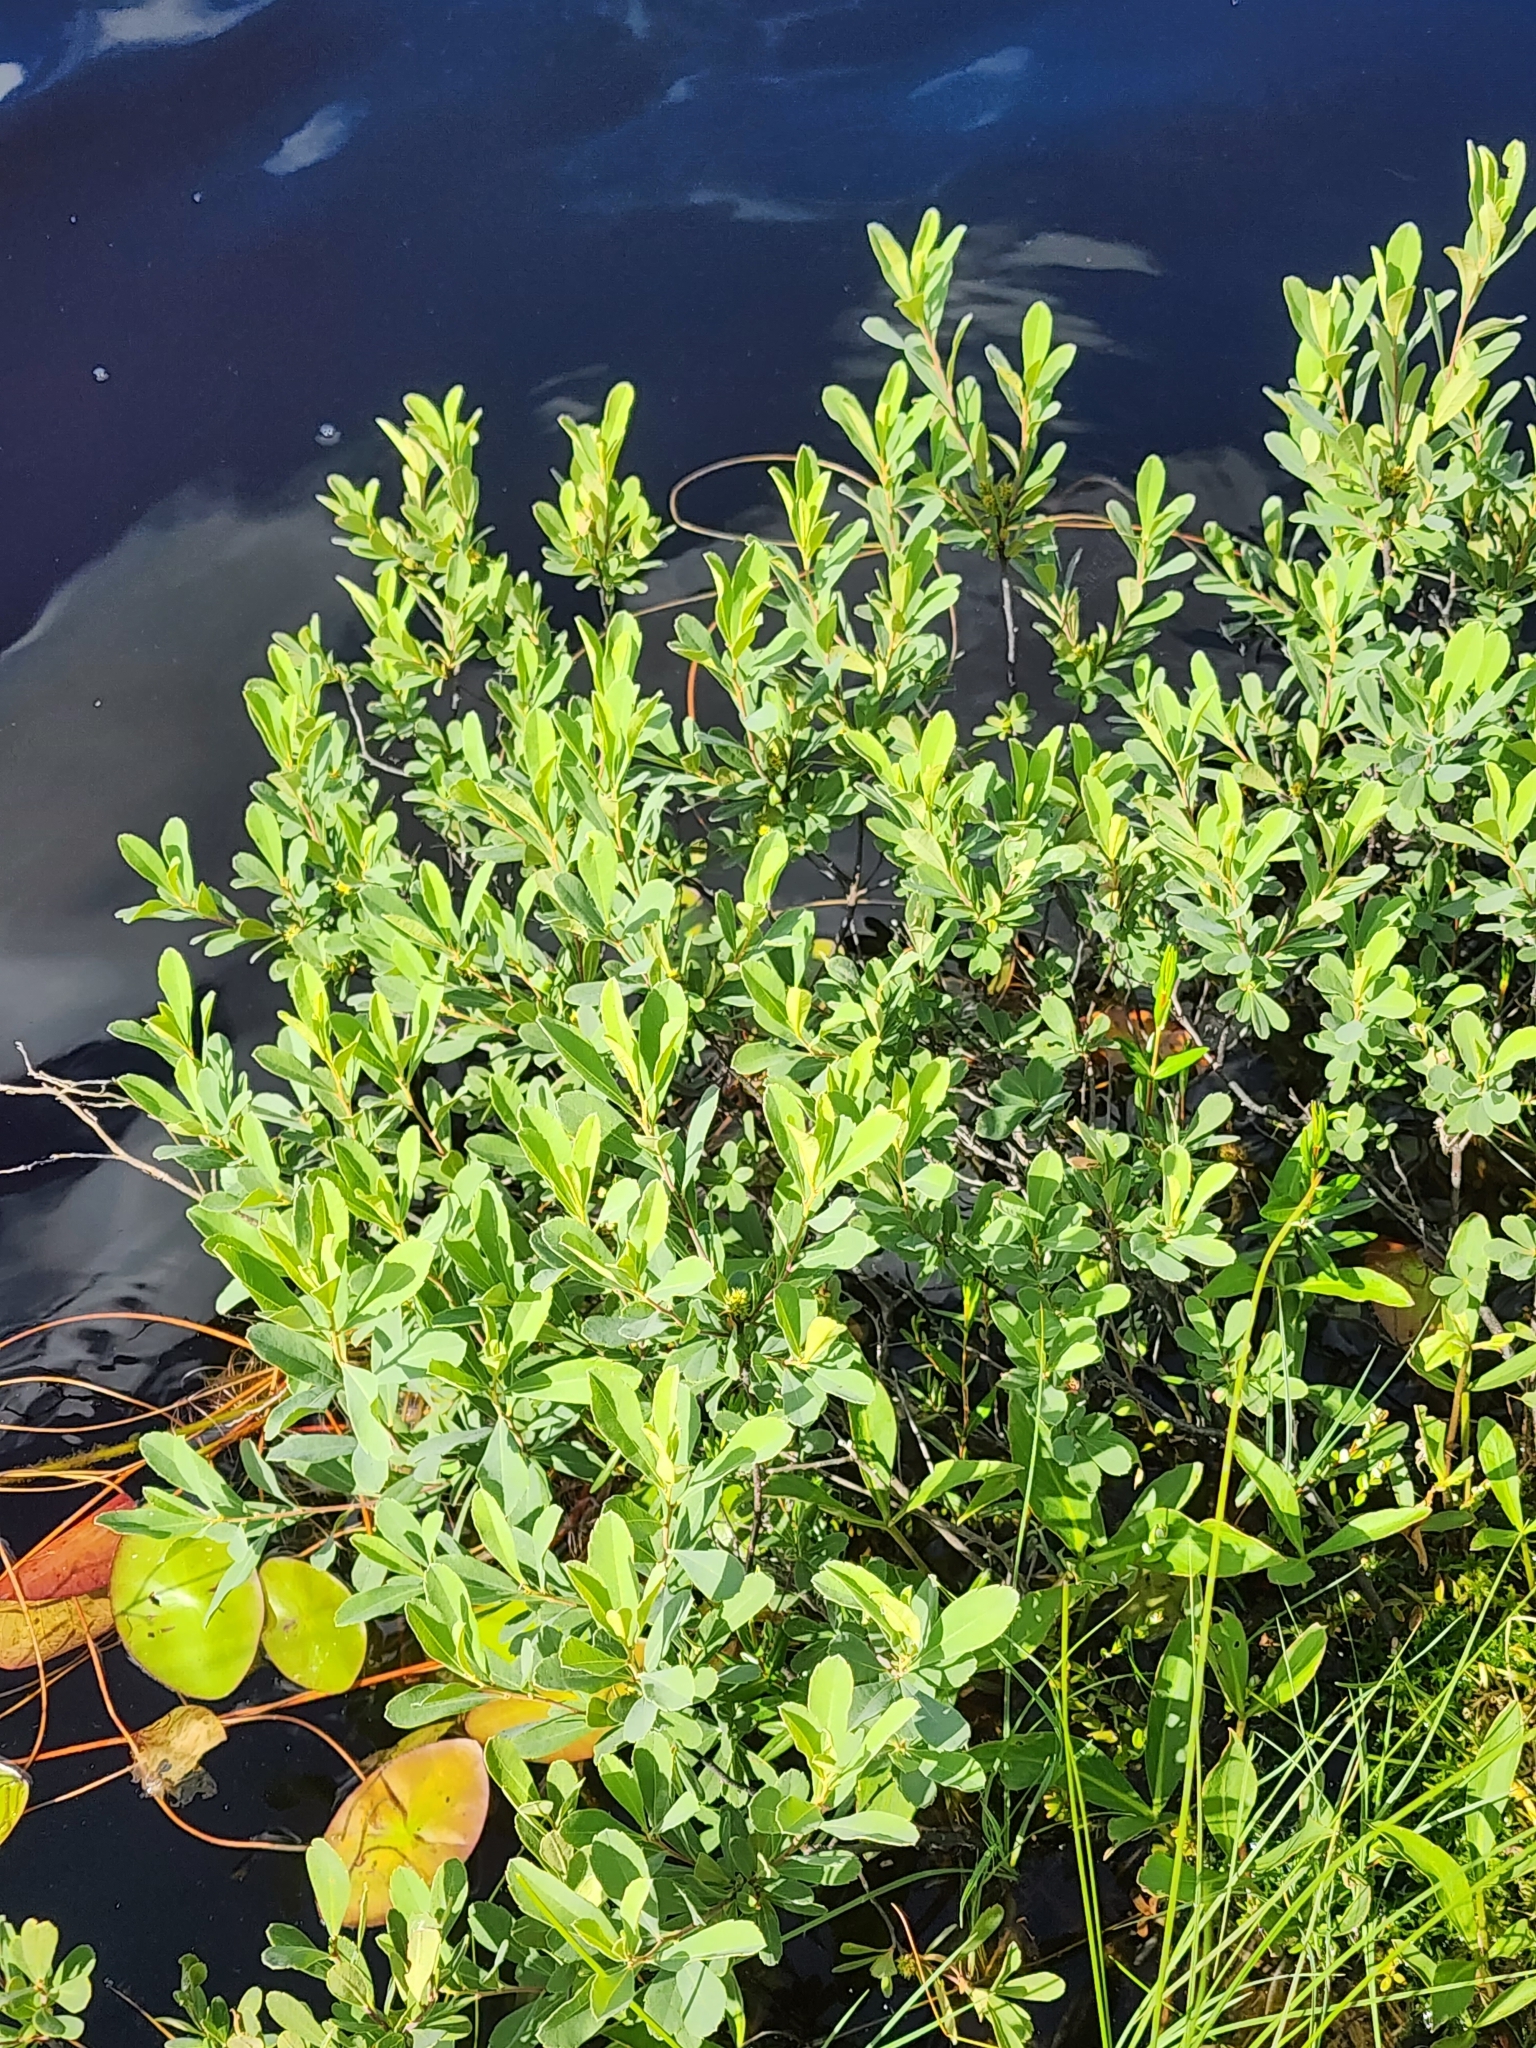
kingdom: Plantae
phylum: Tracheophyta
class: Magnoliopsida
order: Fagales
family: Myricaceae
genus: Myrica
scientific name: Myrica gale
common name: Sweet gale
